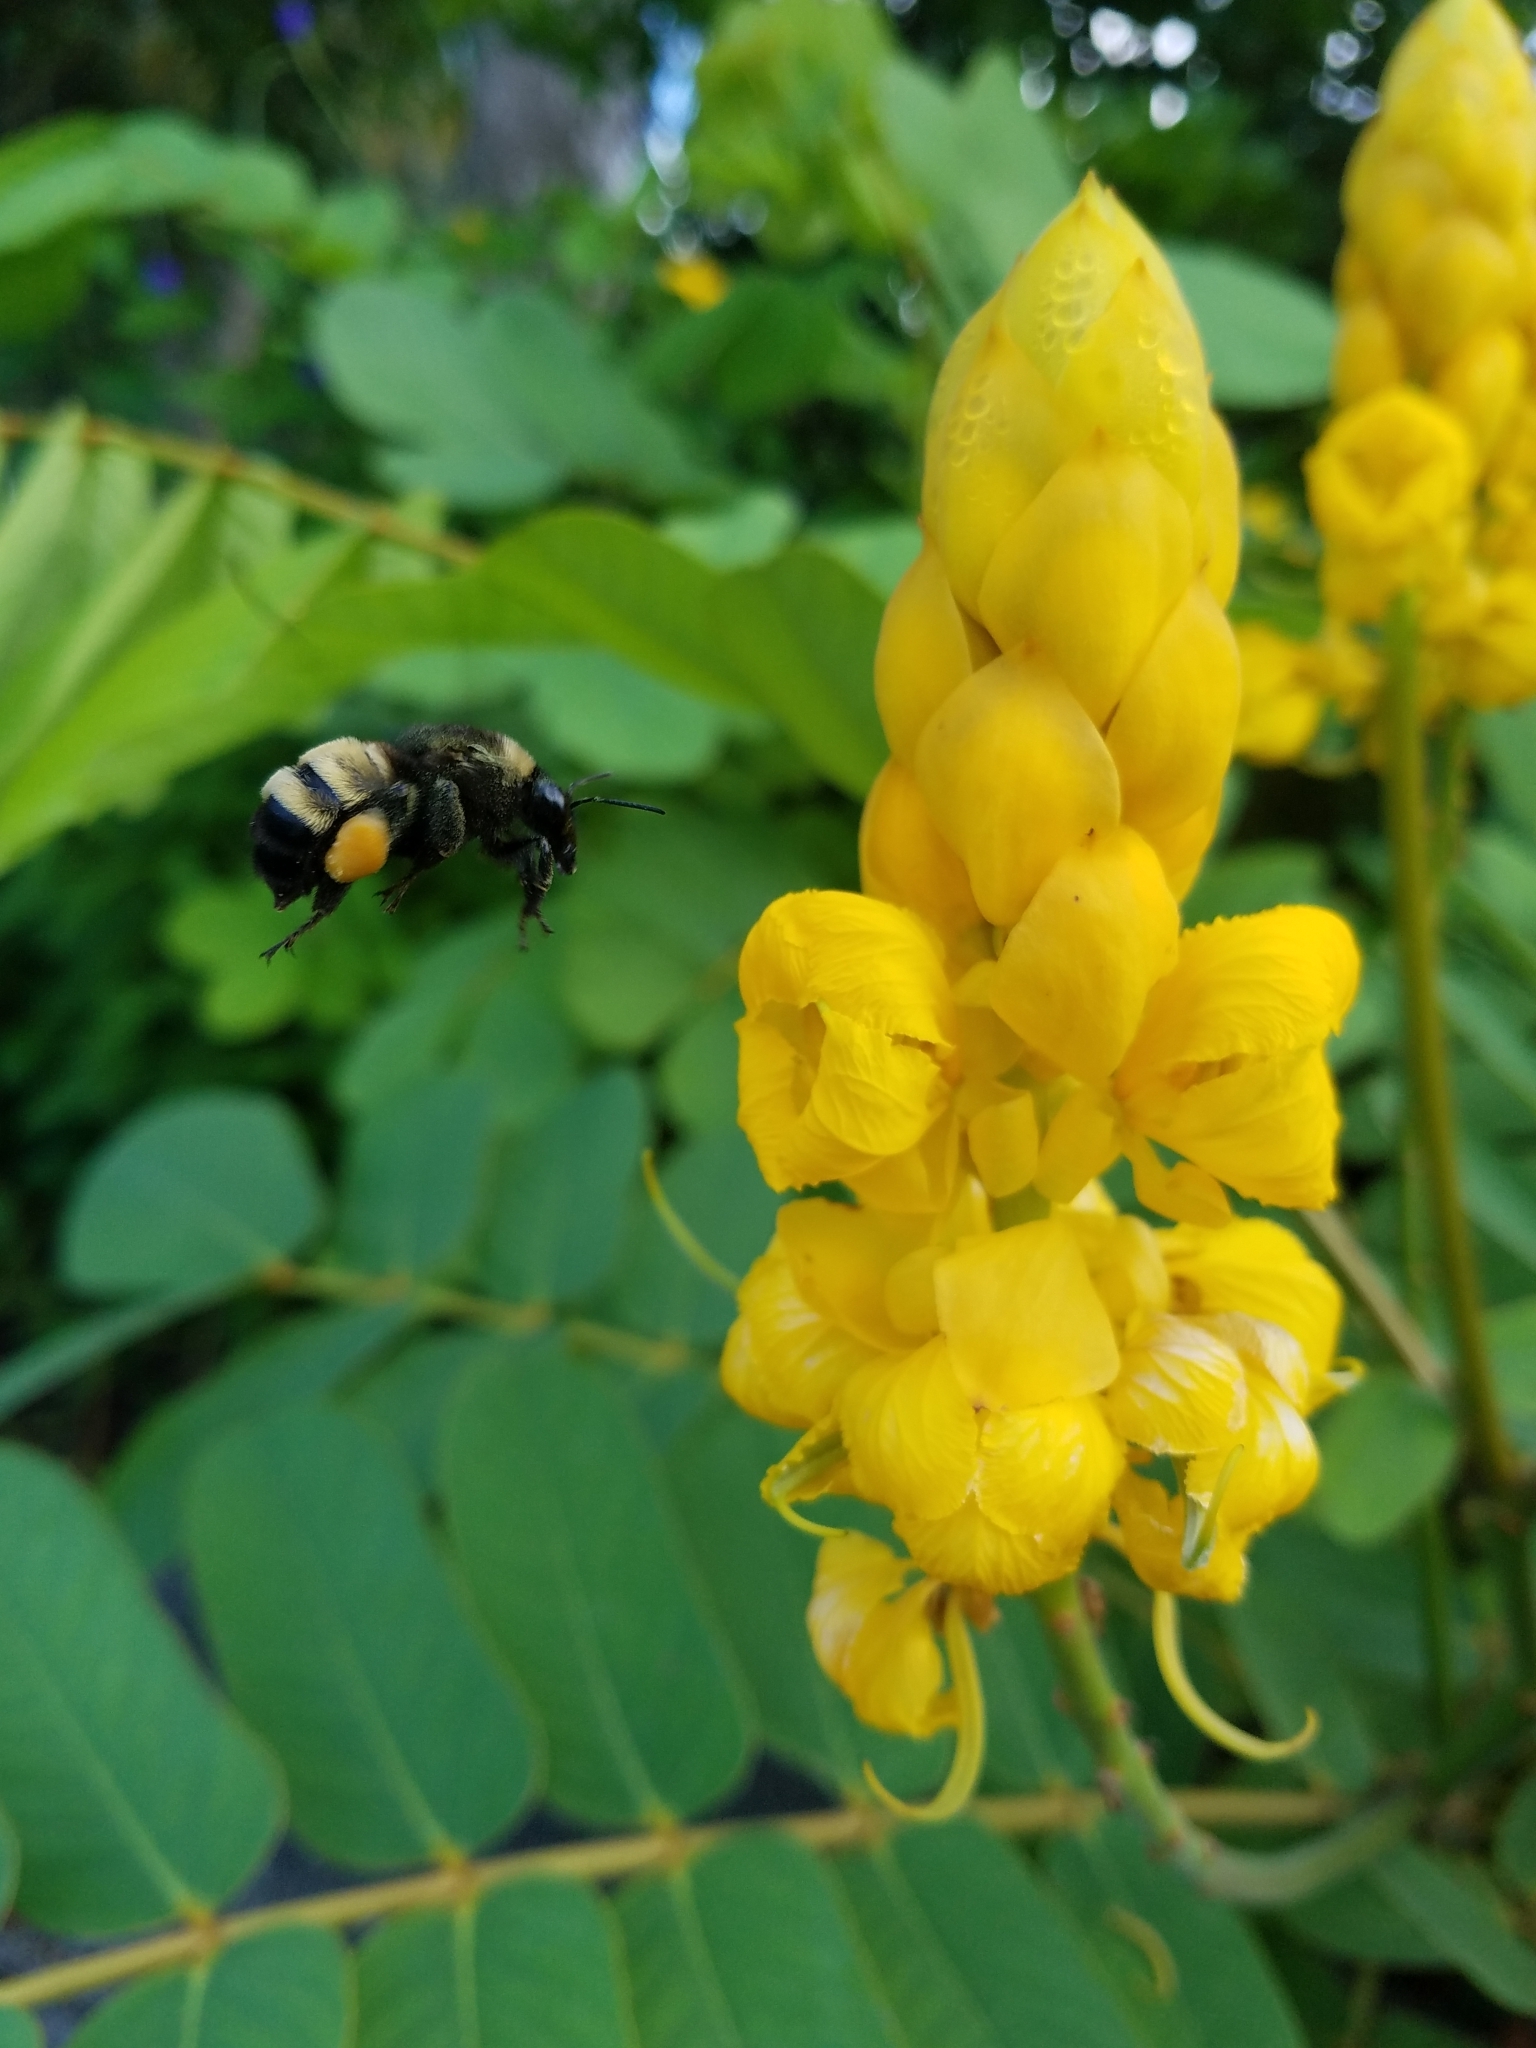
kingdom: Animalia
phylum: Arthropoda
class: Insecta
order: Hymenoptera
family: Apidae
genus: Bombus
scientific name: Bombus pensylvanicus
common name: Bumble bee
